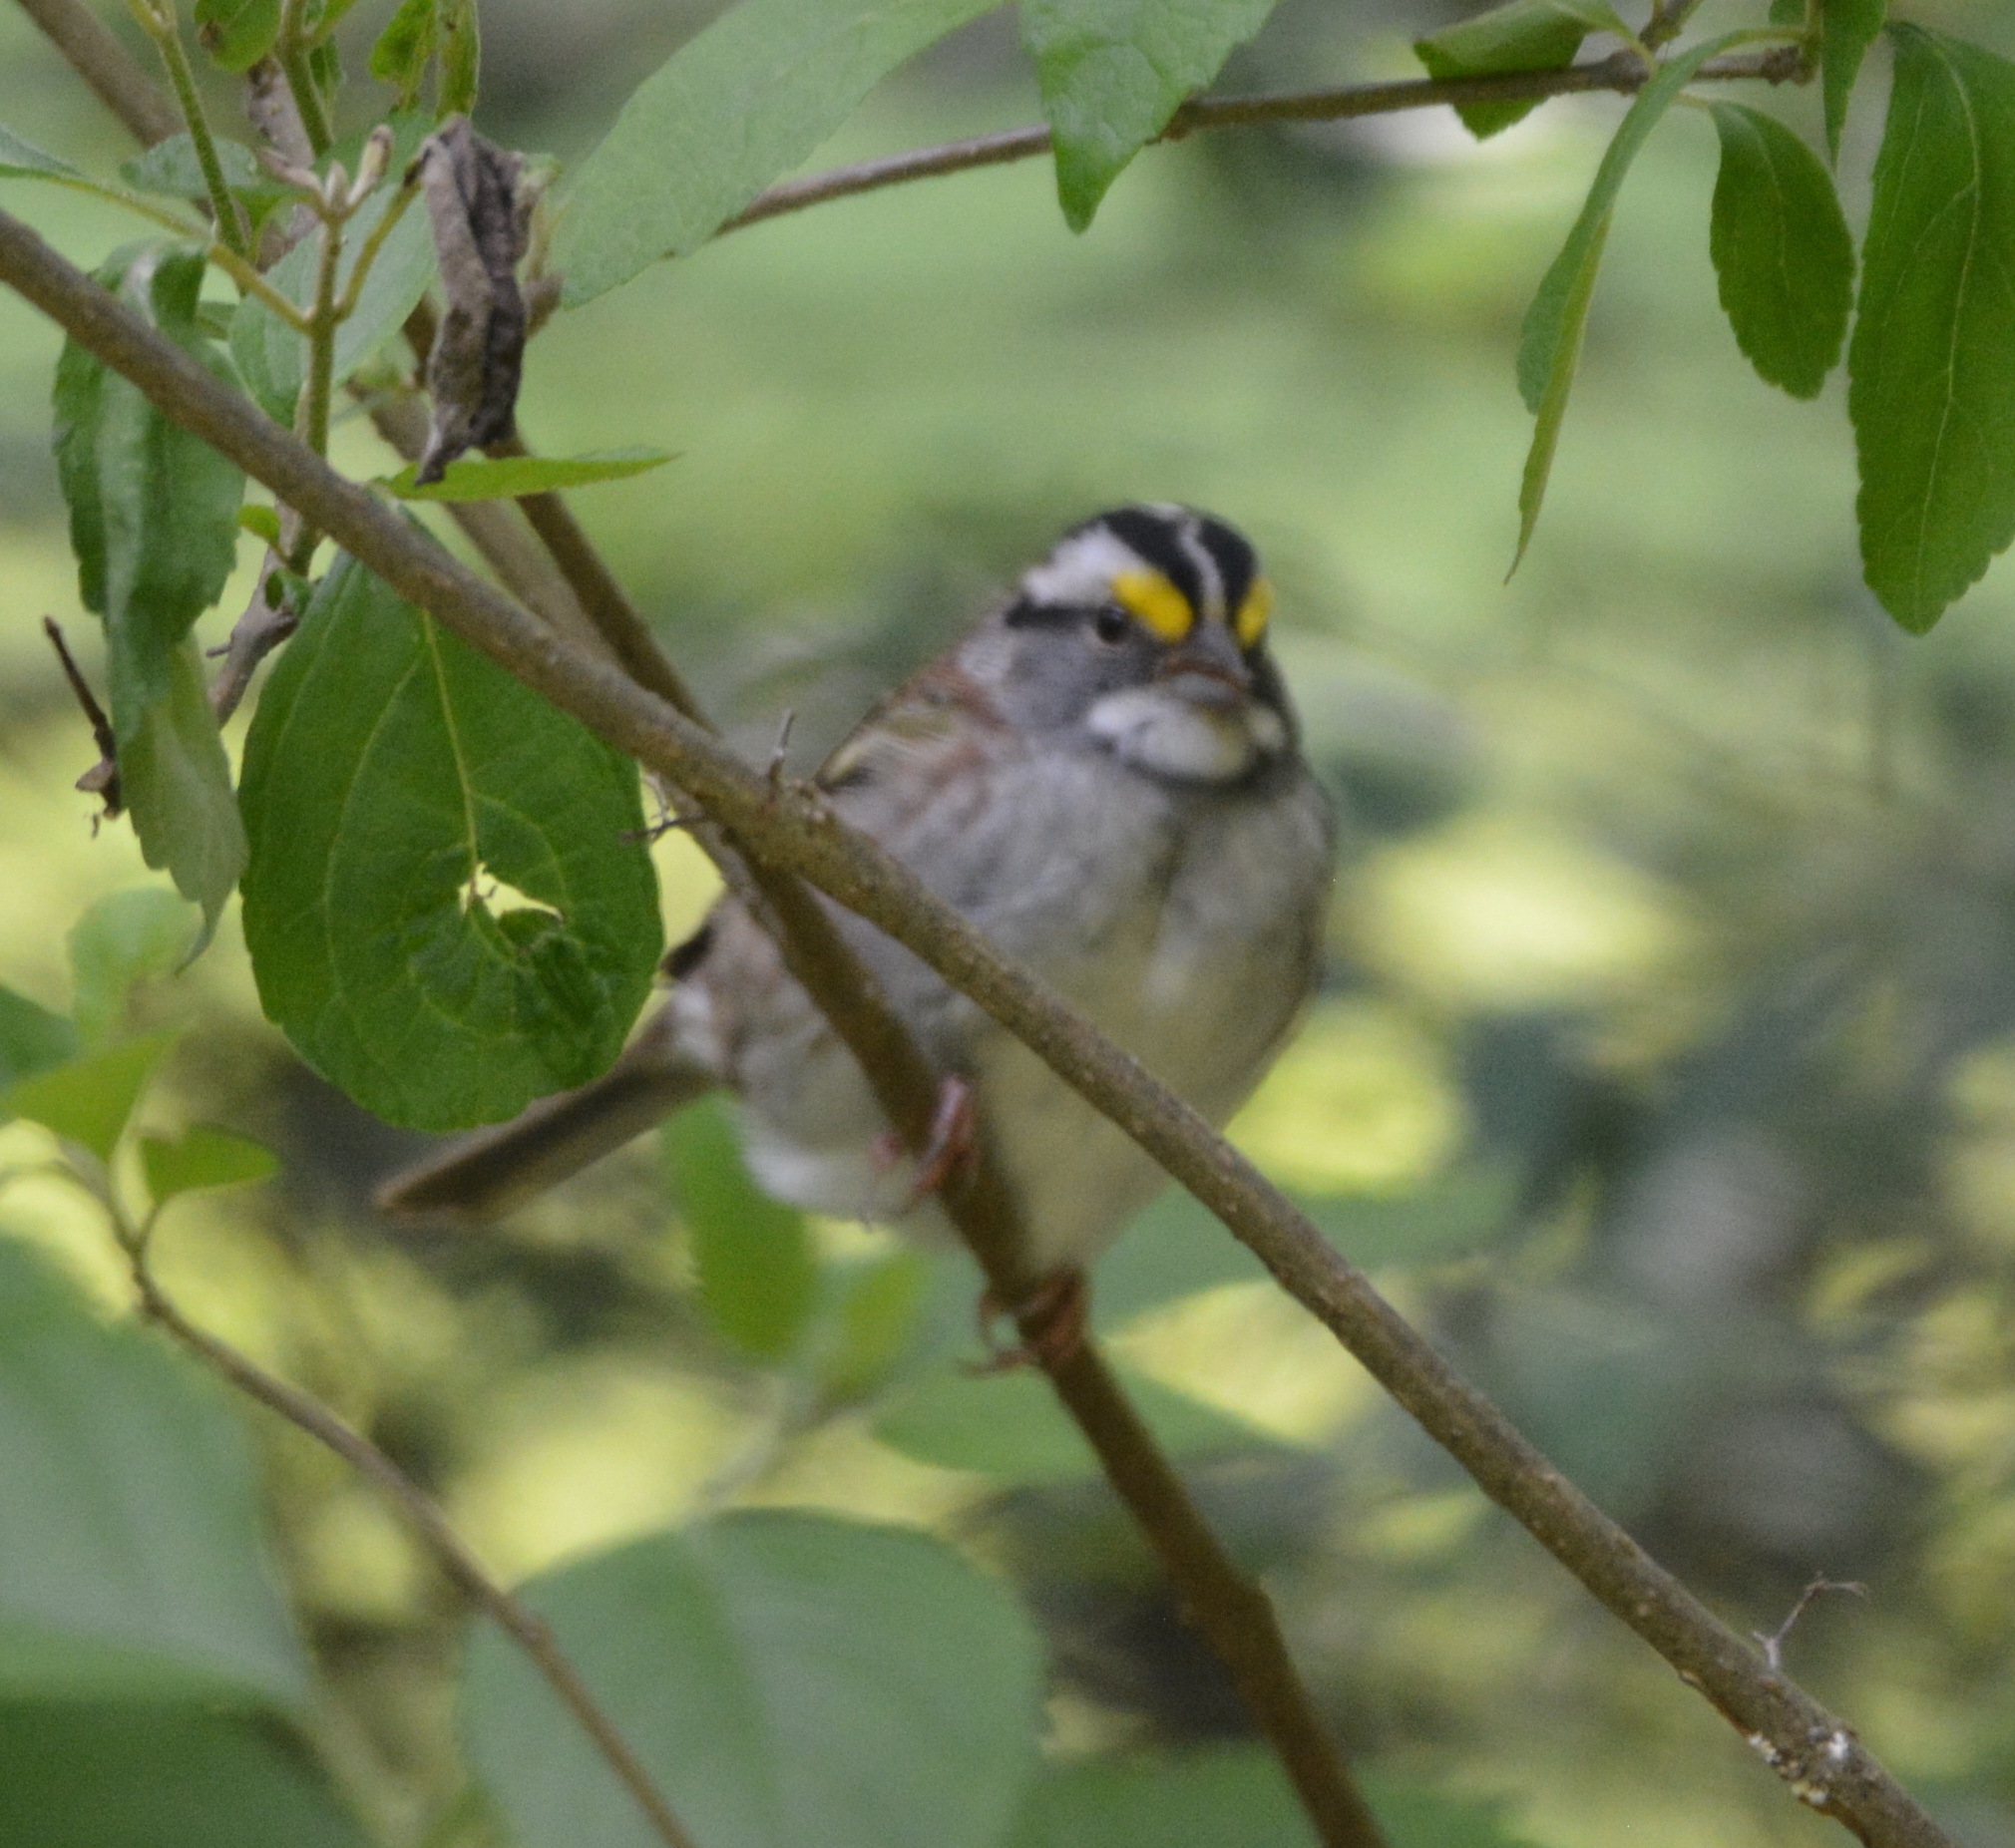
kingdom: Animalia
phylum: Chordata
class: Aves
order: Passeriformes
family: Passerellidae
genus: Zonotrichia
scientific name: Zonotrichia albicollis
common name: White-throated sparrow
